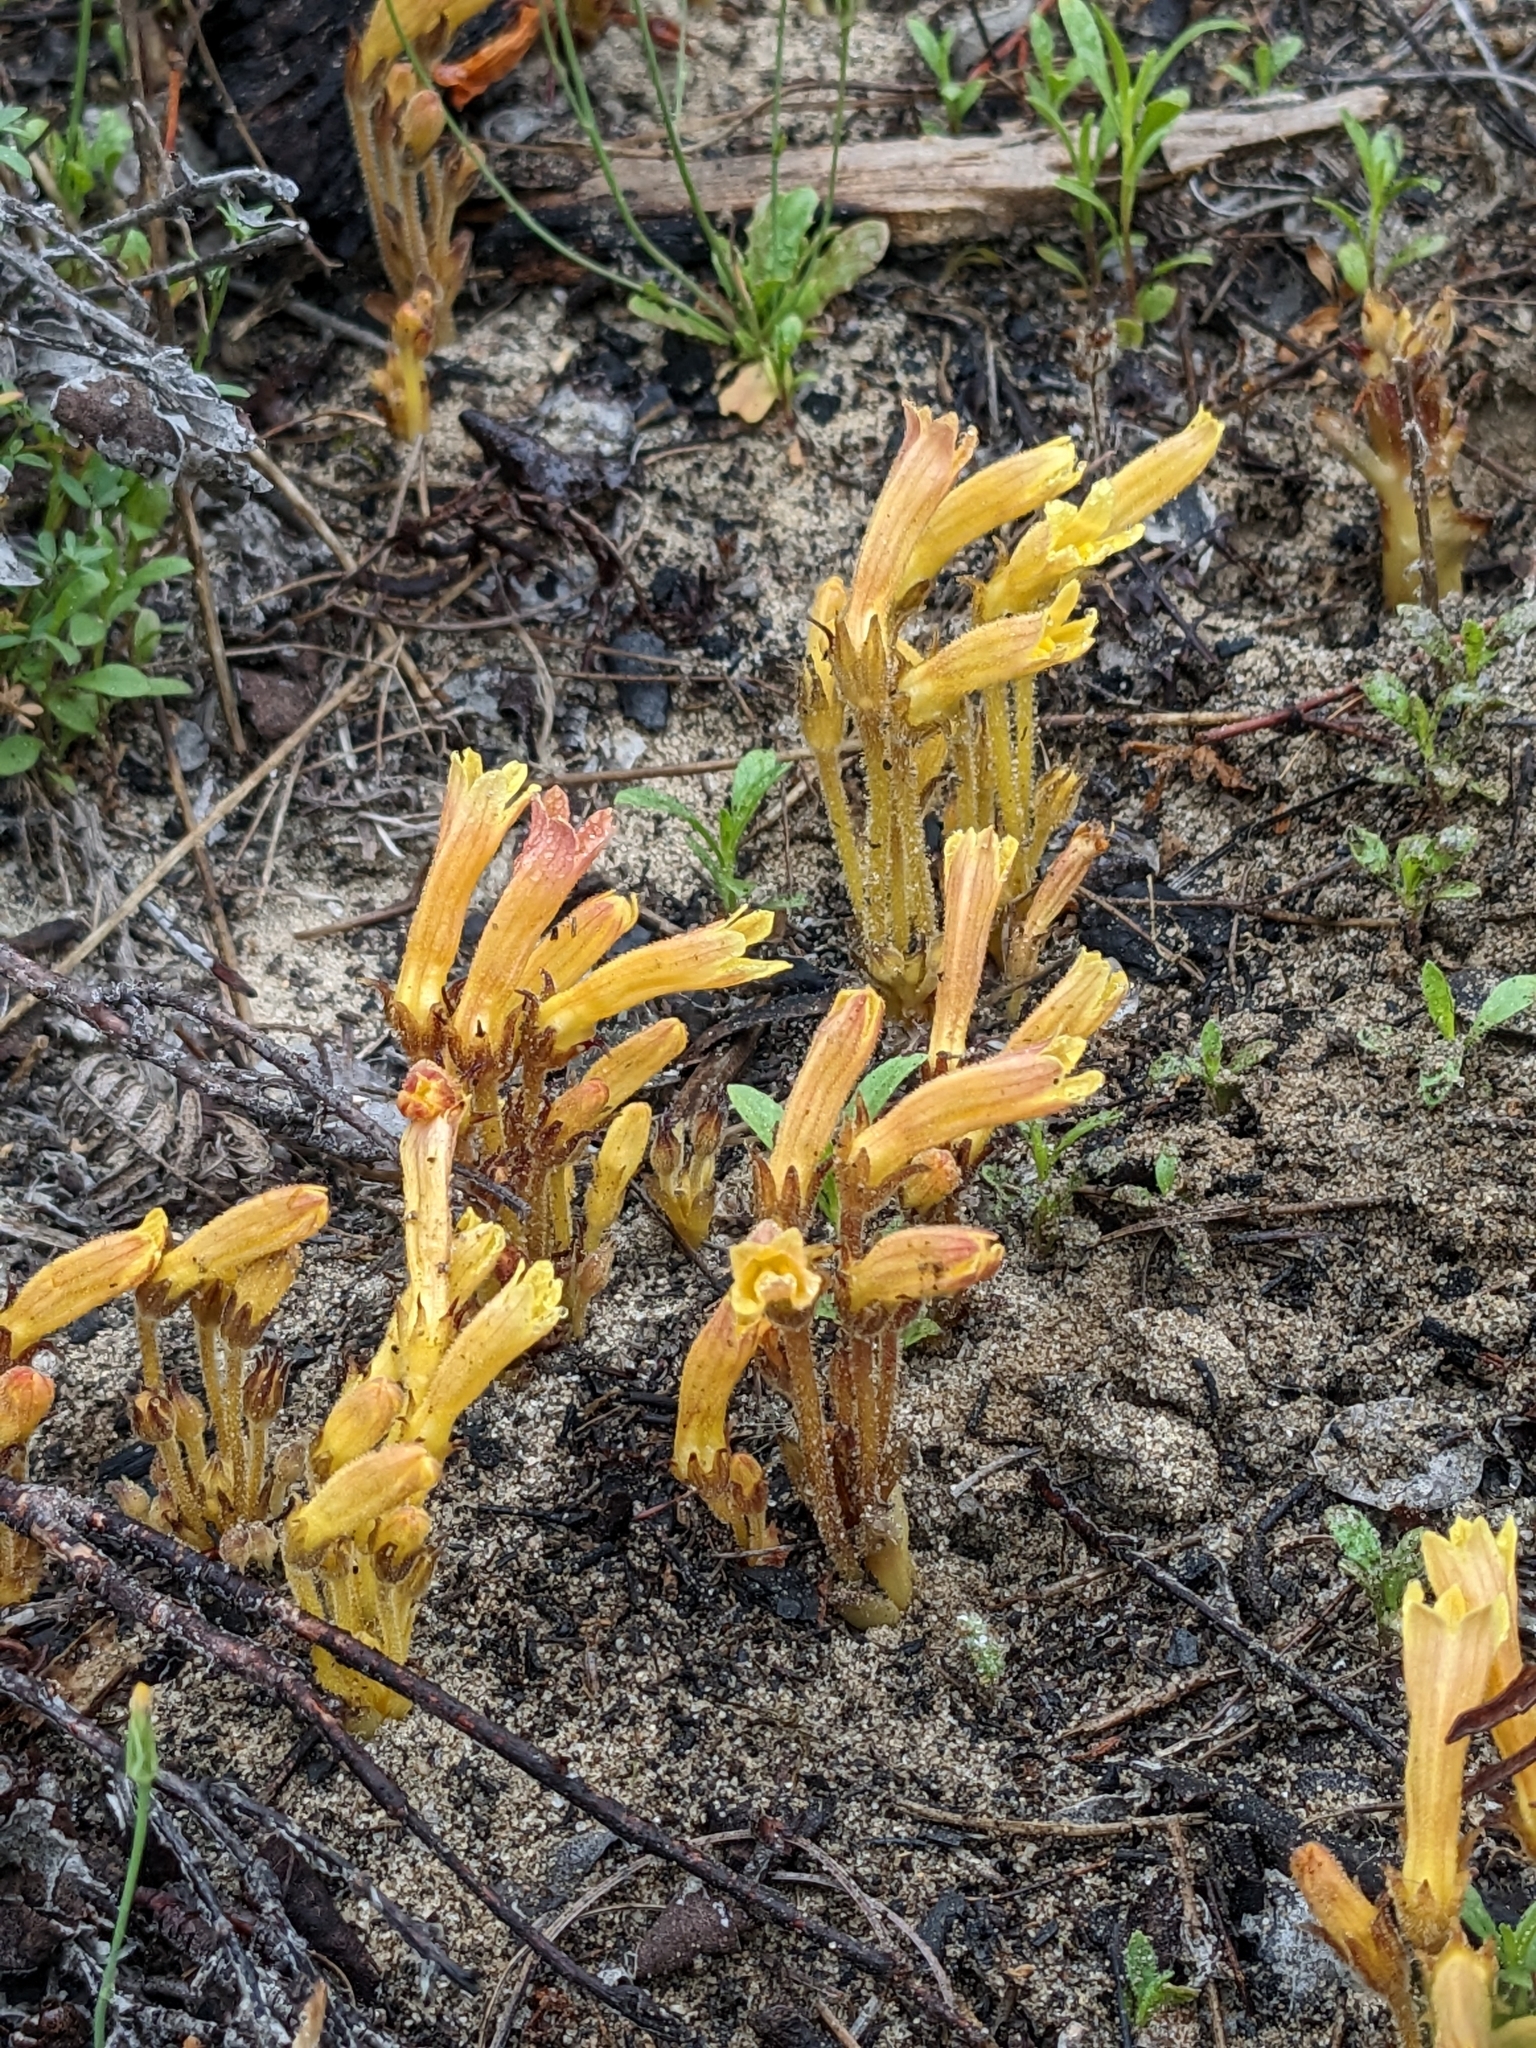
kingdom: Plantae
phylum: Tracheophyta
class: Magnoliopsida
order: Lamiales
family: Orobanchaceae
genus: Aphyllon
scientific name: Aphyllon franciscanum
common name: San francisco broomrape
